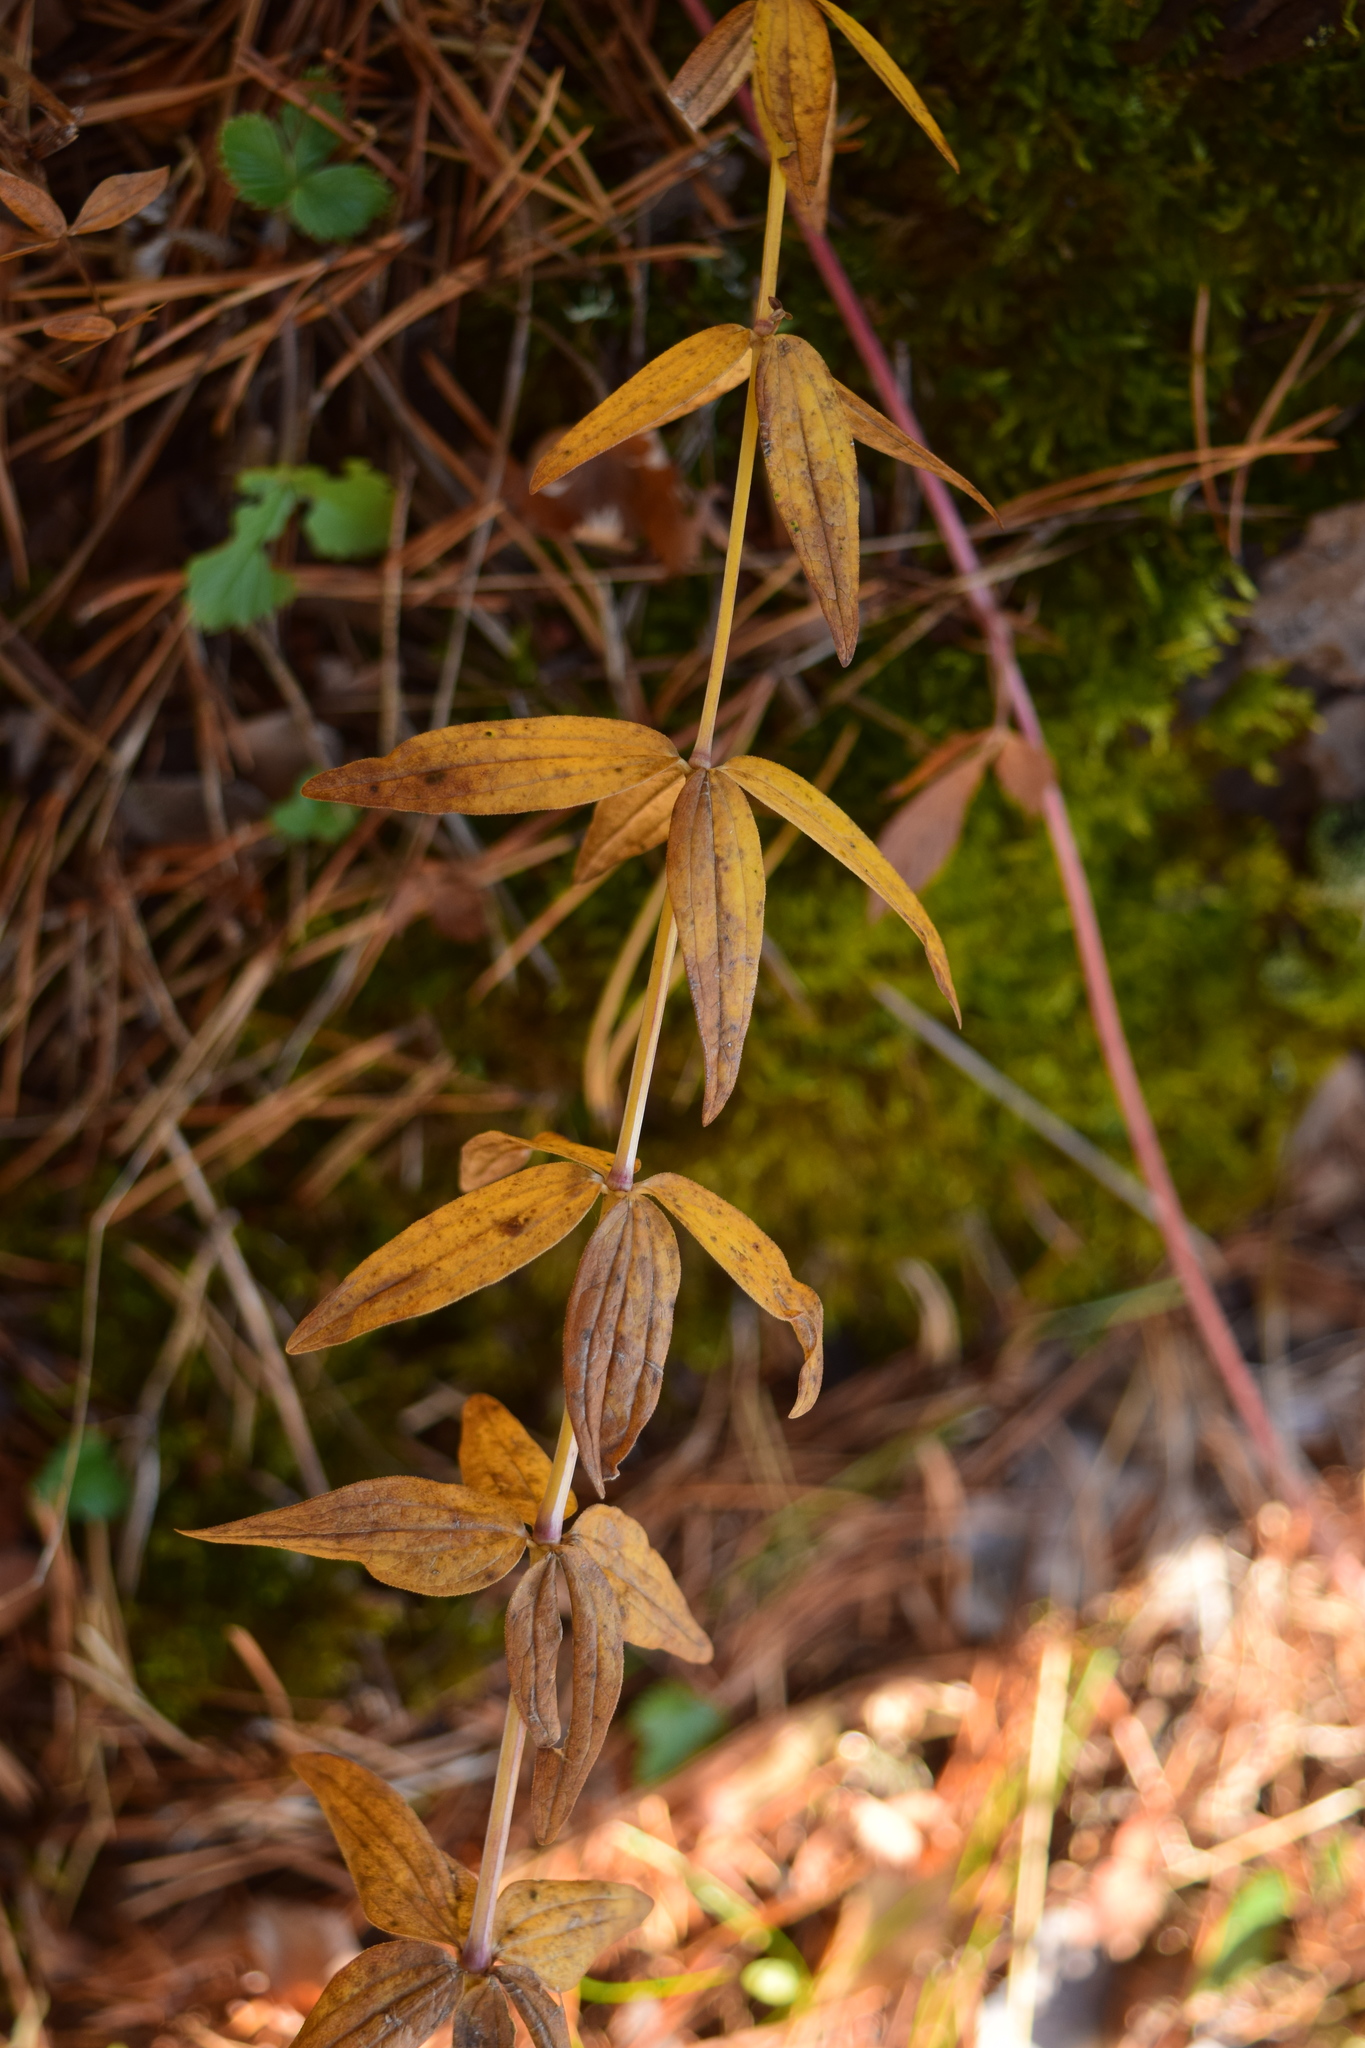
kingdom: Plantae
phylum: Tracheophyta
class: Magnoliopsida
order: Gentianales
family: Rubiaceae
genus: Galium
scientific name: Galium boreale
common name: Northern bedstraw
